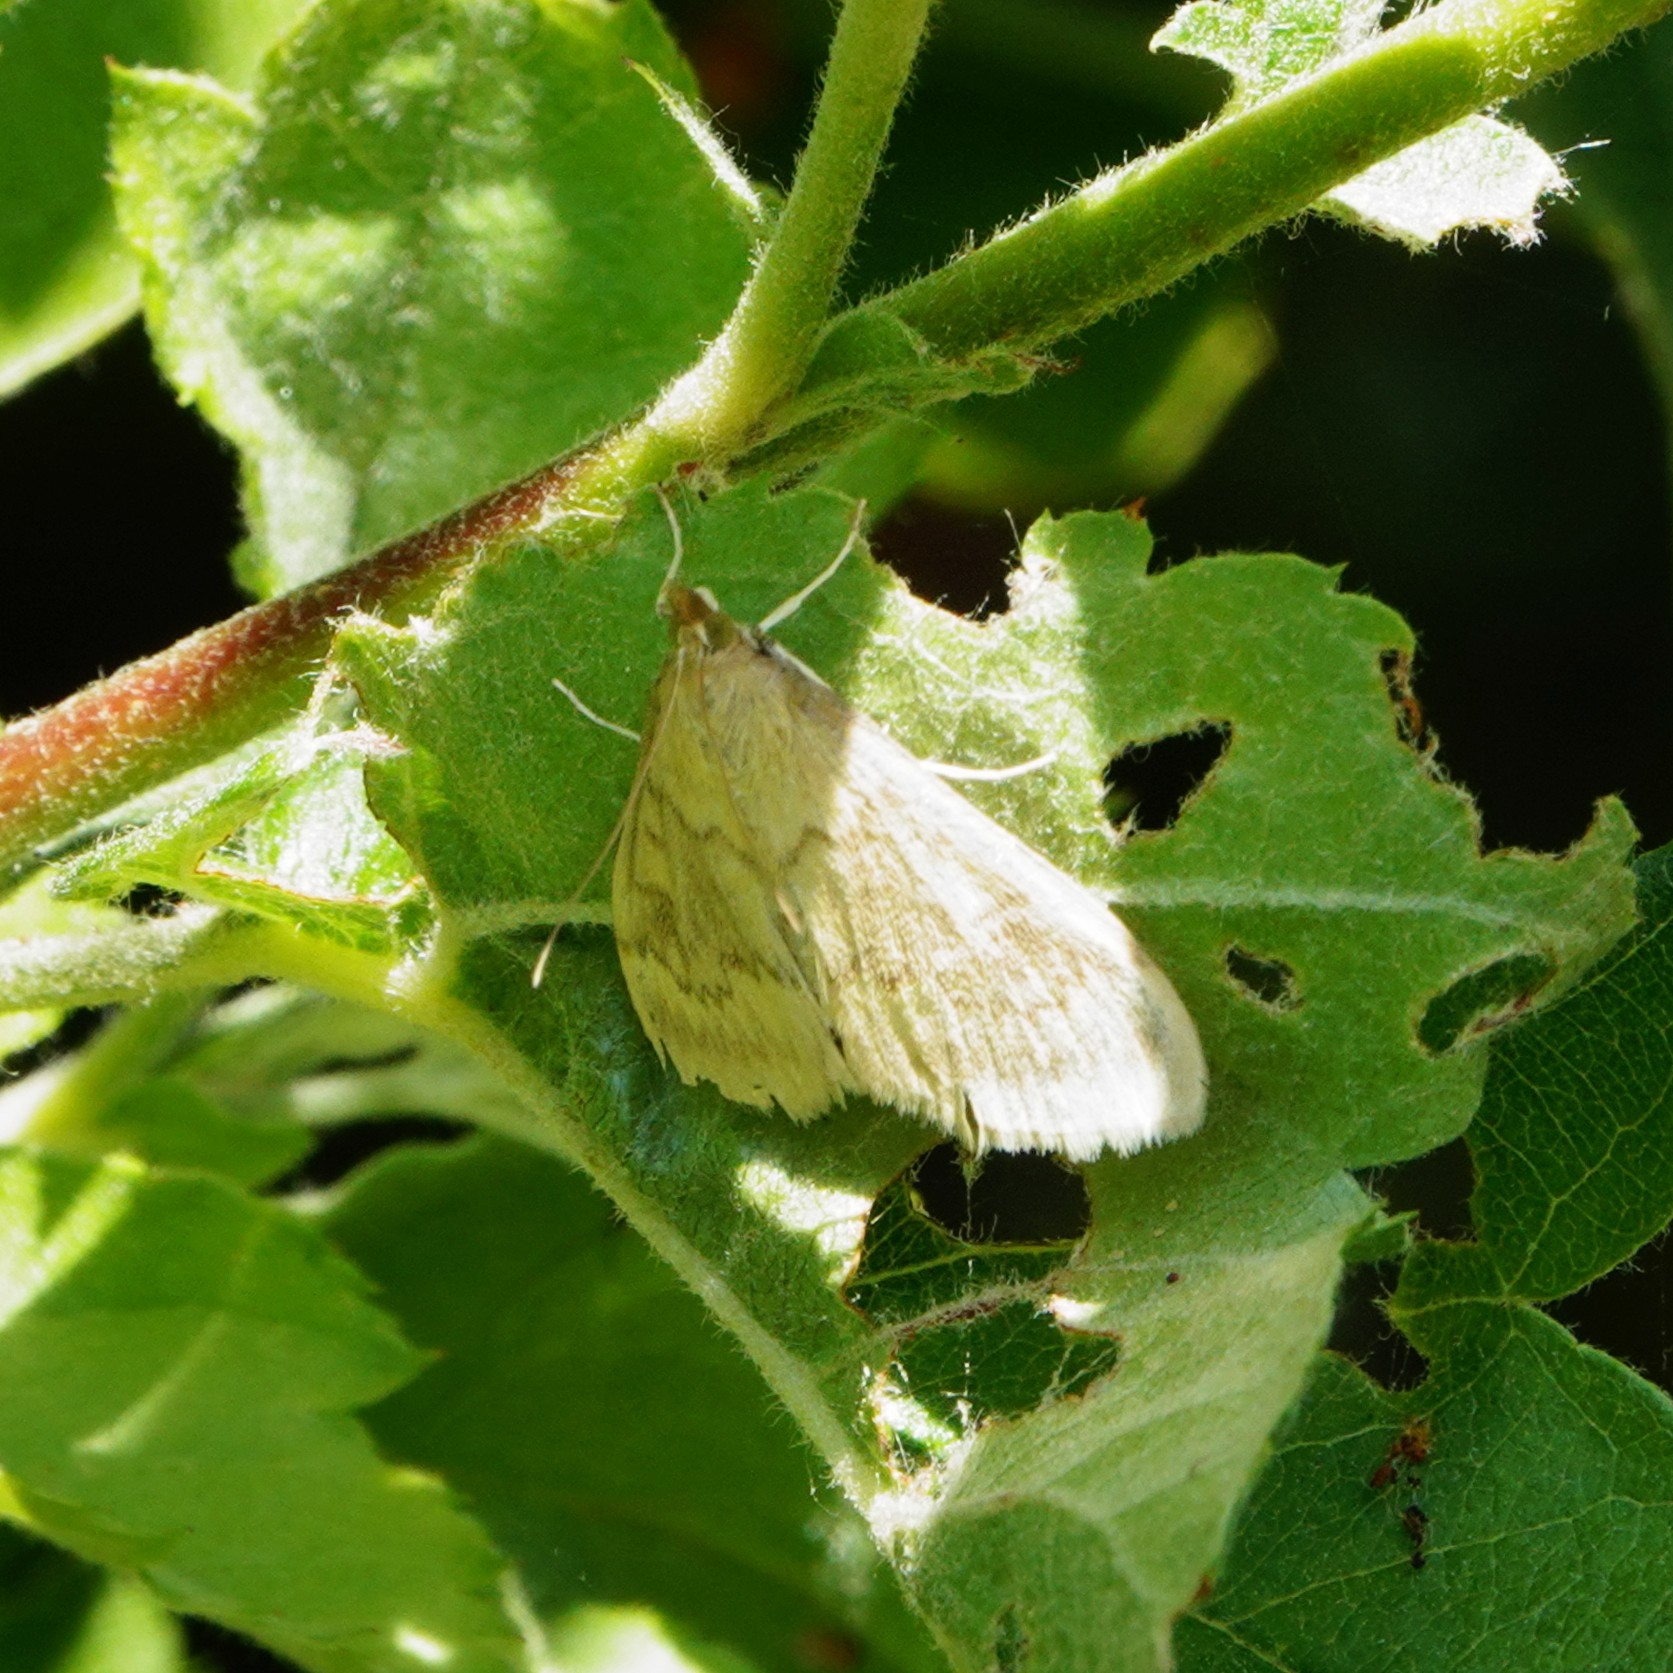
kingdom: Animalia
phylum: Arthropoda
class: Insecta
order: Lepidoptera
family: Crambidae
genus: Ostrinia
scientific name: Ostrinia nubilalis
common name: European corn borer
